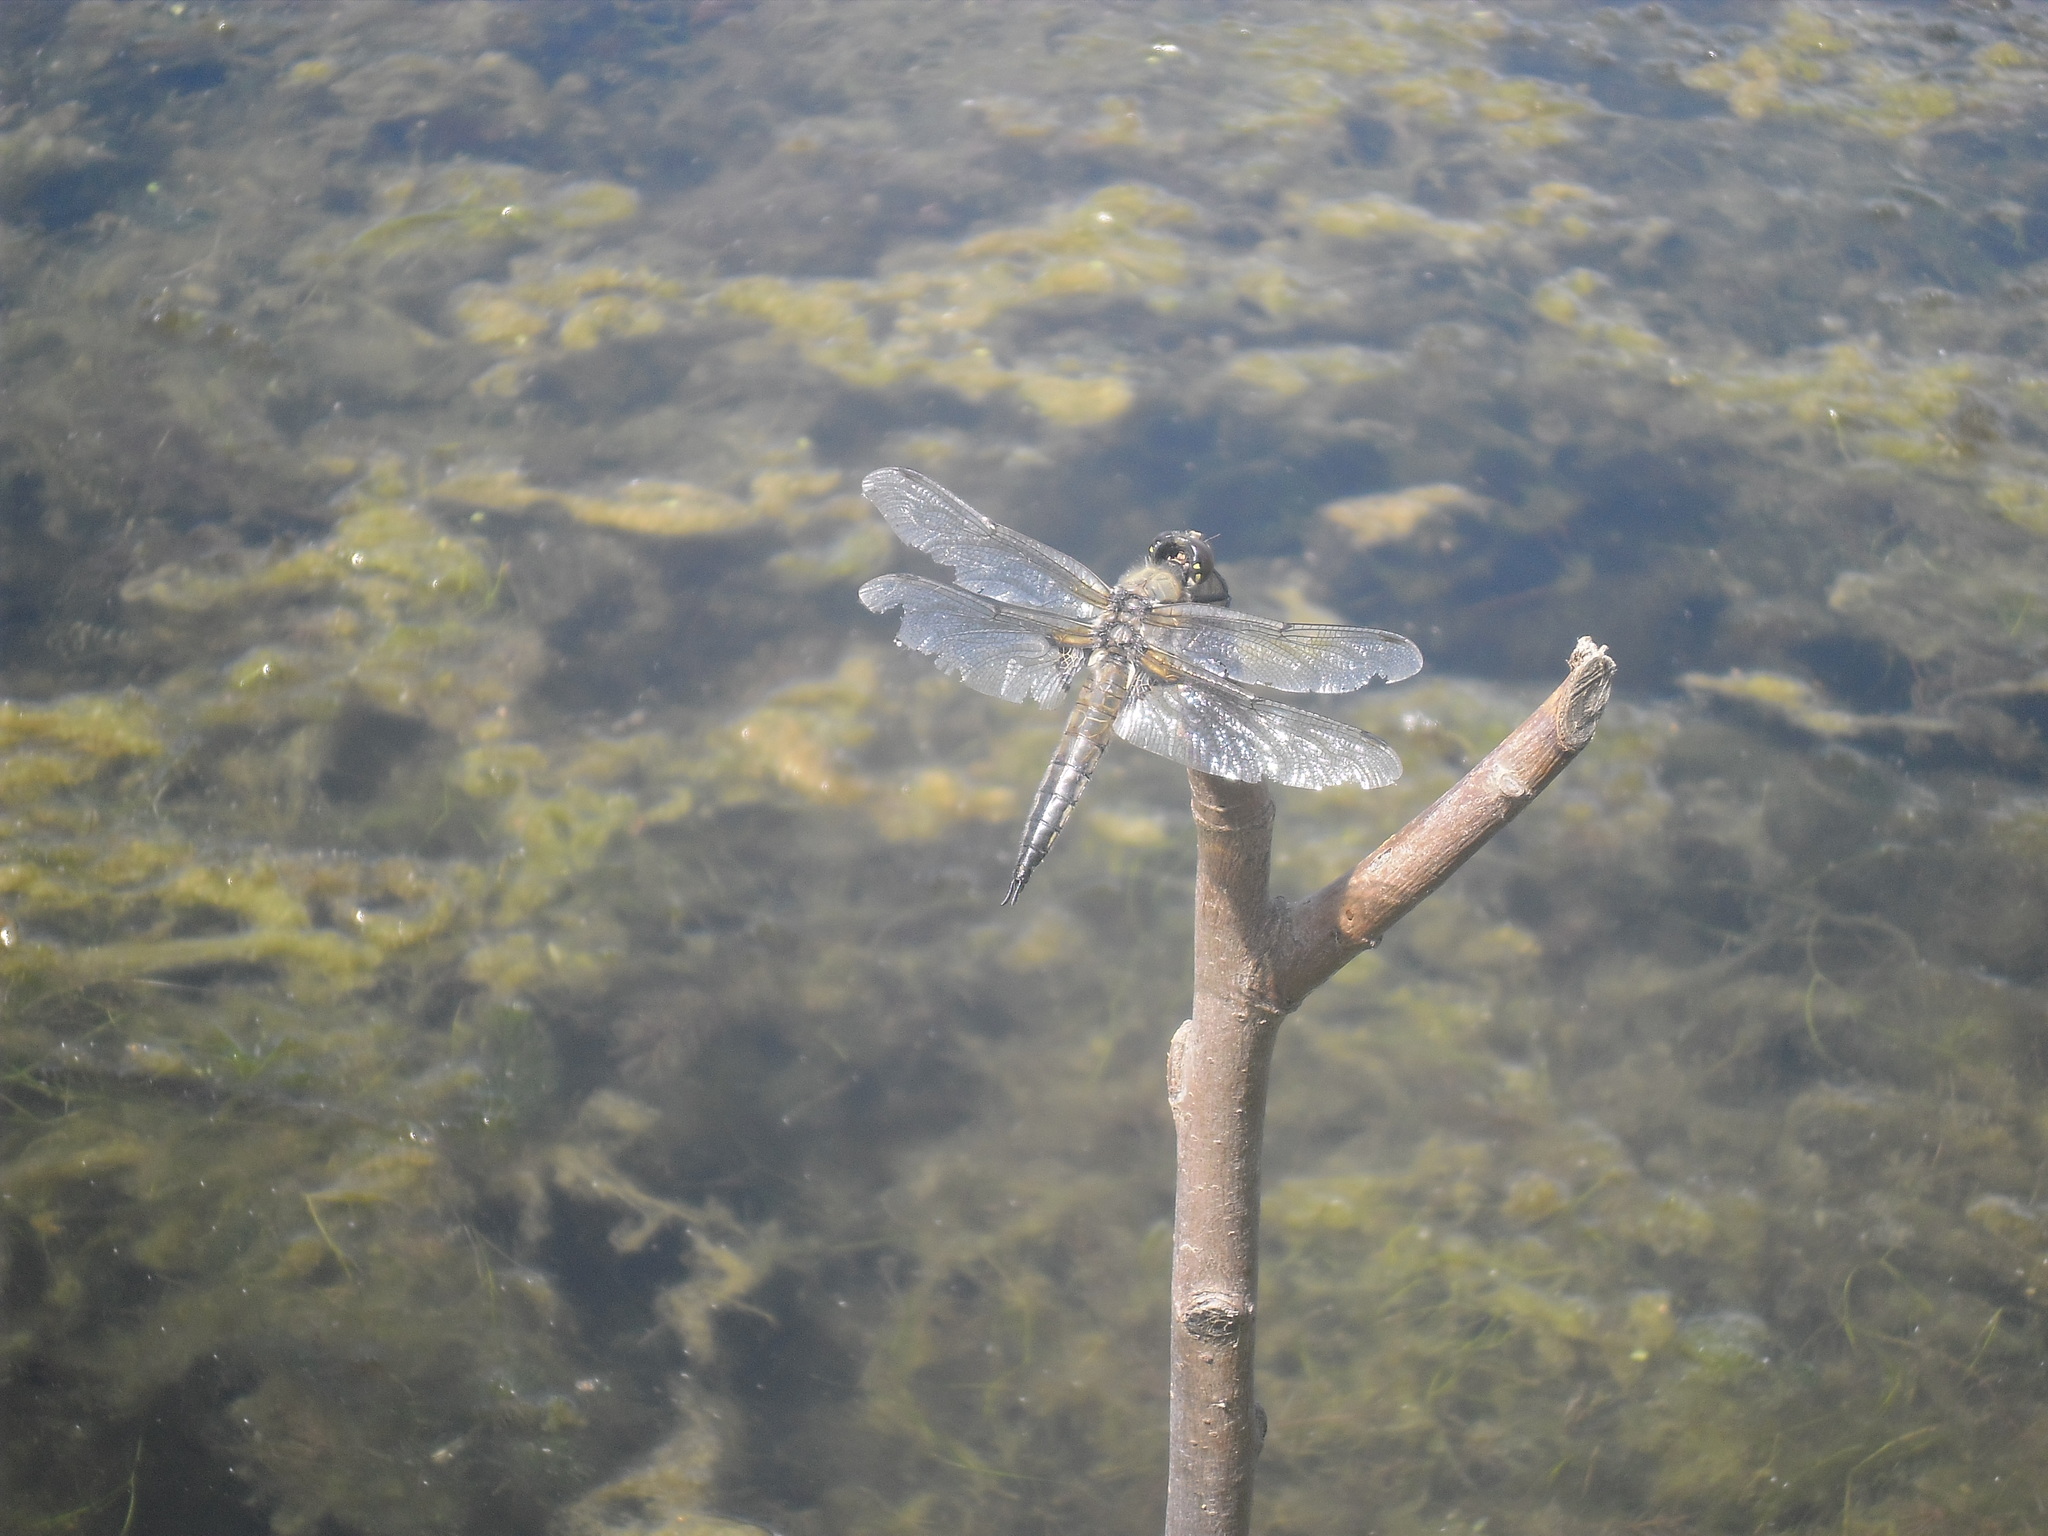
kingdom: Animalia
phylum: Arthropoda
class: Insecta
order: Odonata
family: Libellulidae
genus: Libellula
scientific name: Libellula quadrimaculata
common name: Four-spotted chaser
